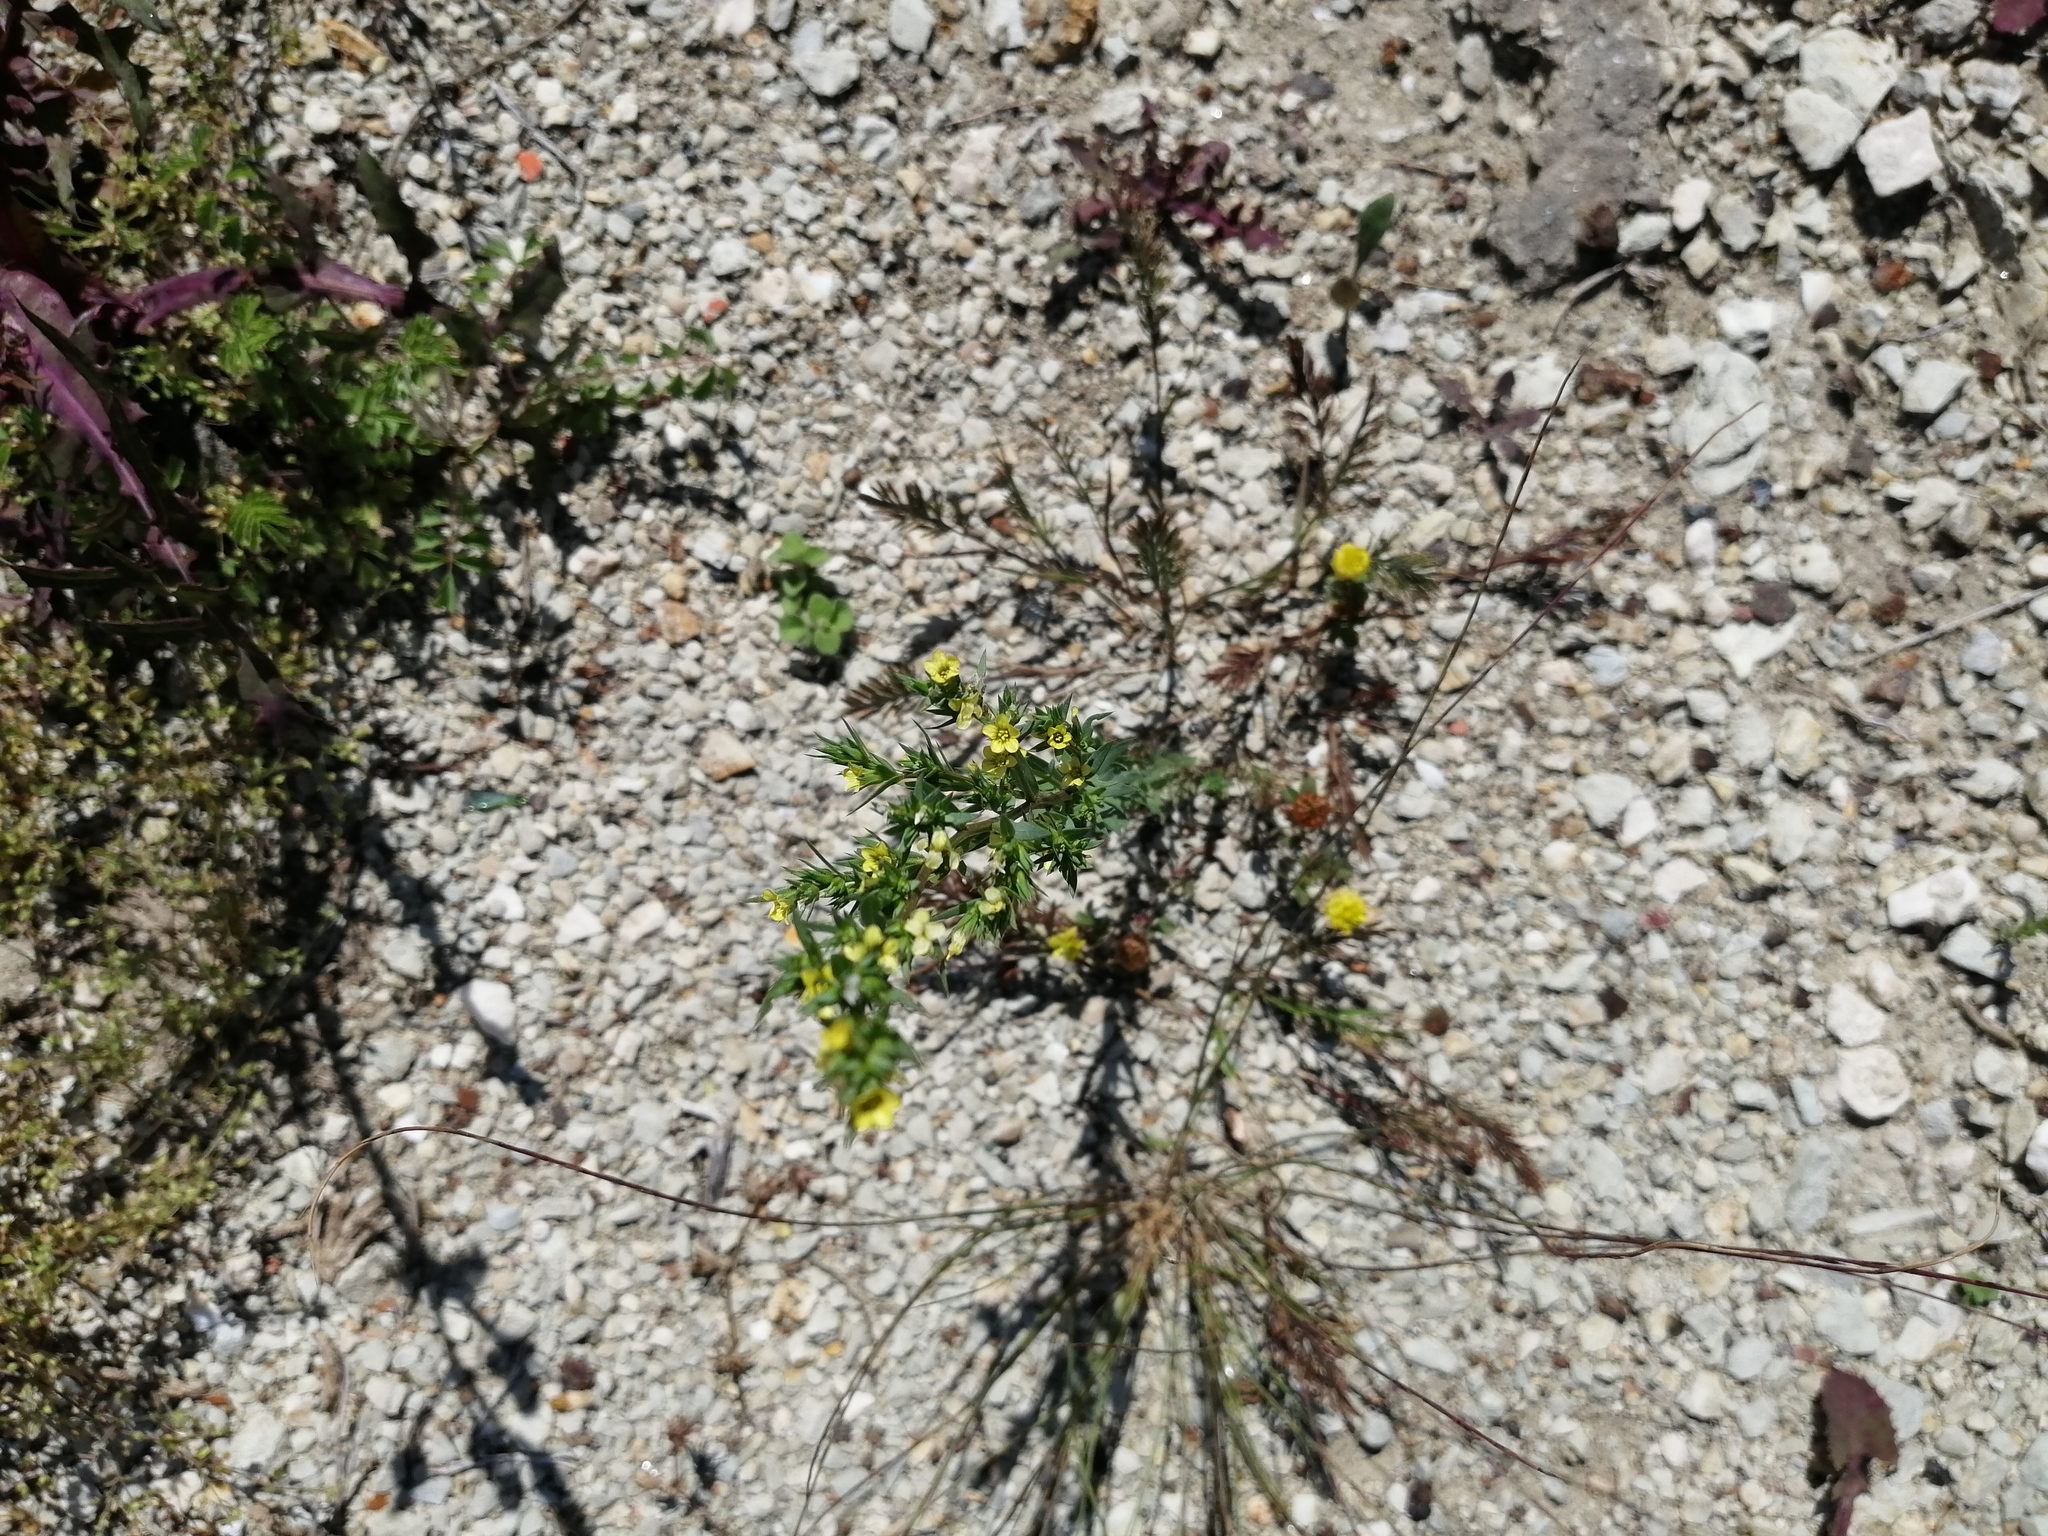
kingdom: Plantae
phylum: Tracheophyta
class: Magnoliopsida
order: Malpighiales
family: Linaceae
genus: Linum
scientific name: Linum strictum
